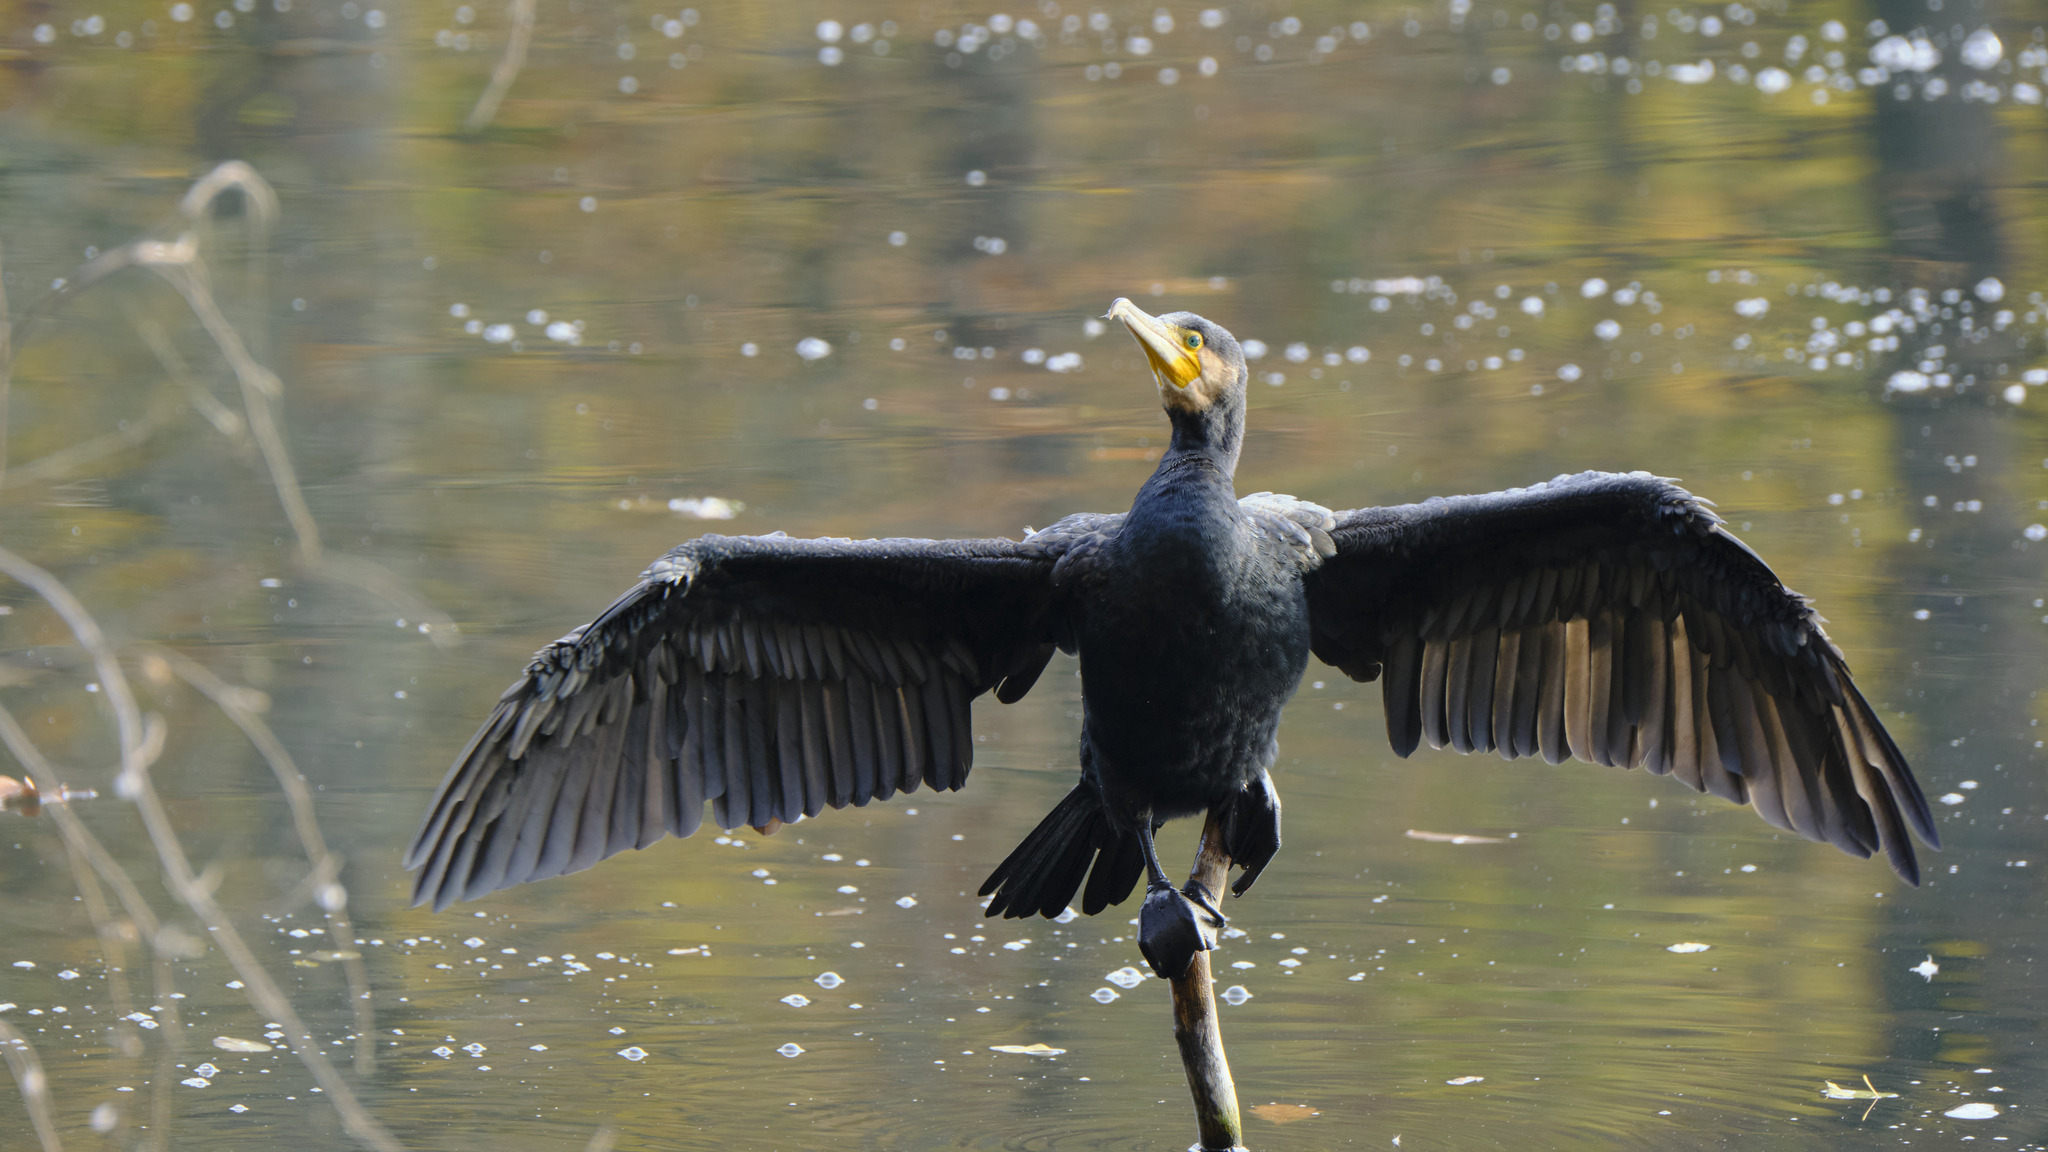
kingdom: Animalia
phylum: Chordata
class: Aves
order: Suliformes
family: Phalacrocoracidae
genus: Phalacrocorax
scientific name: Phalacrocorax carbo
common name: Great cormorant
